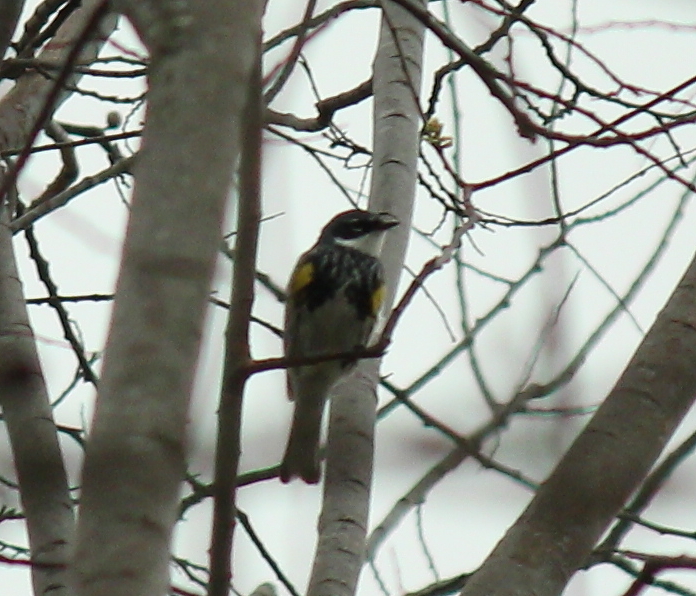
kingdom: Animalia
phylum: Chordata
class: Aves
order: Passeriformes
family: Parulidae
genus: Setophaga
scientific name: Setophaga coronata
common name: Myrtle warbler
